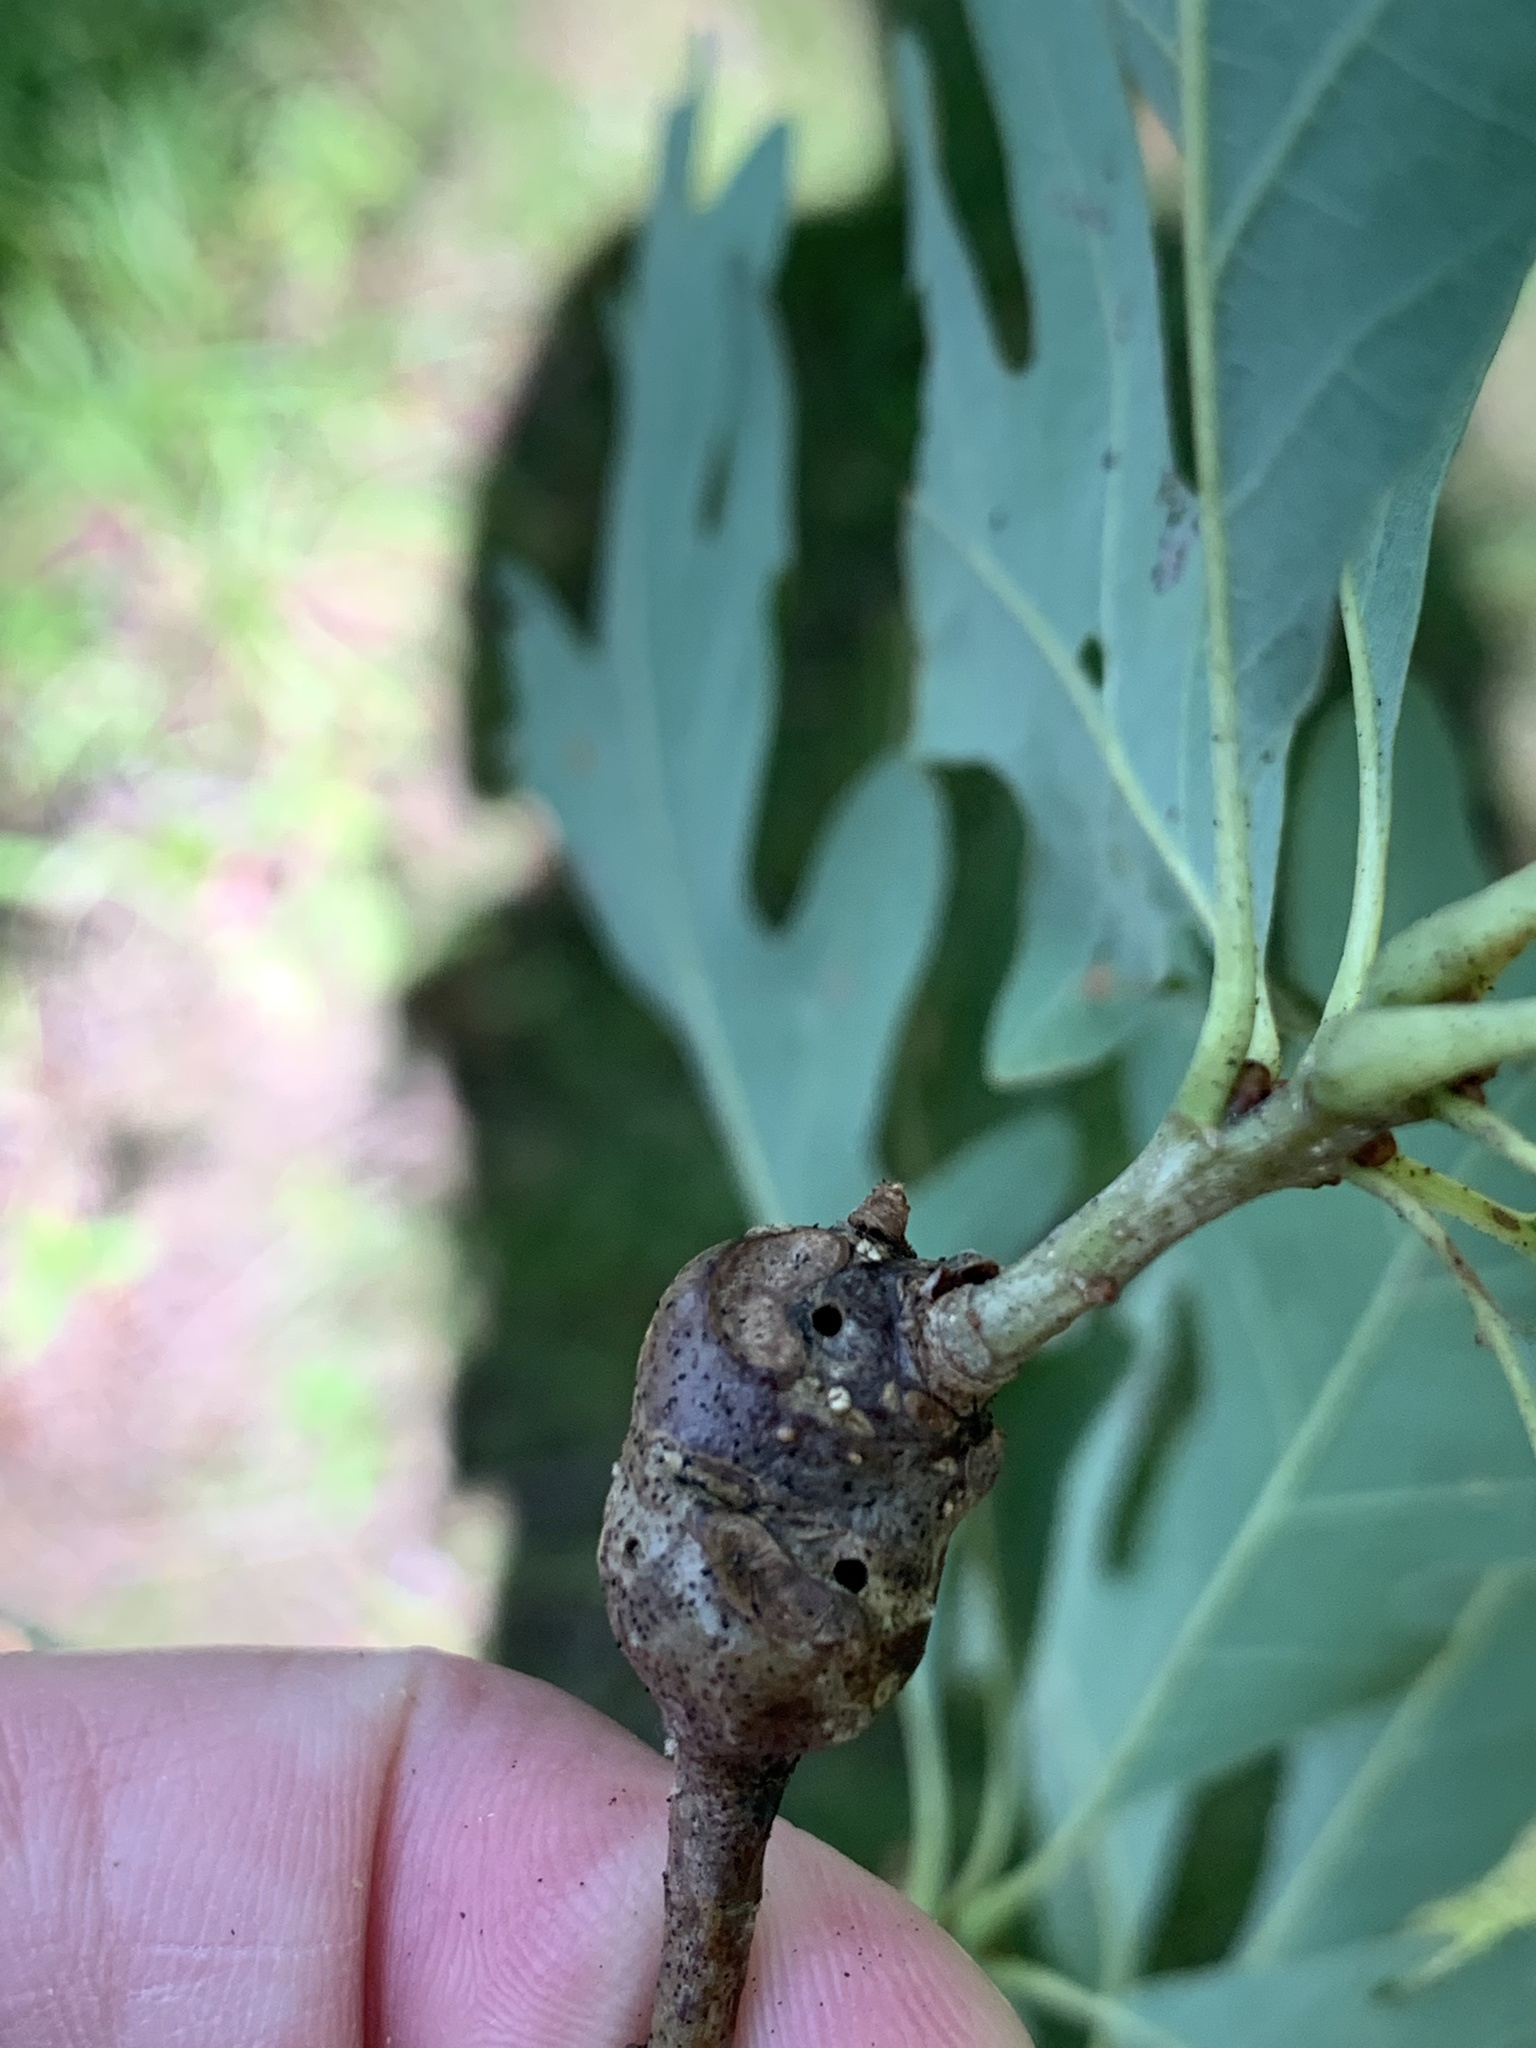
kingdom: Animalia
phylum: Arthropoda
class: Insecta
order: Hymenoptera
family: Cynipidae
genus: Callirhytis
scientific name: Callirhytis clavula
